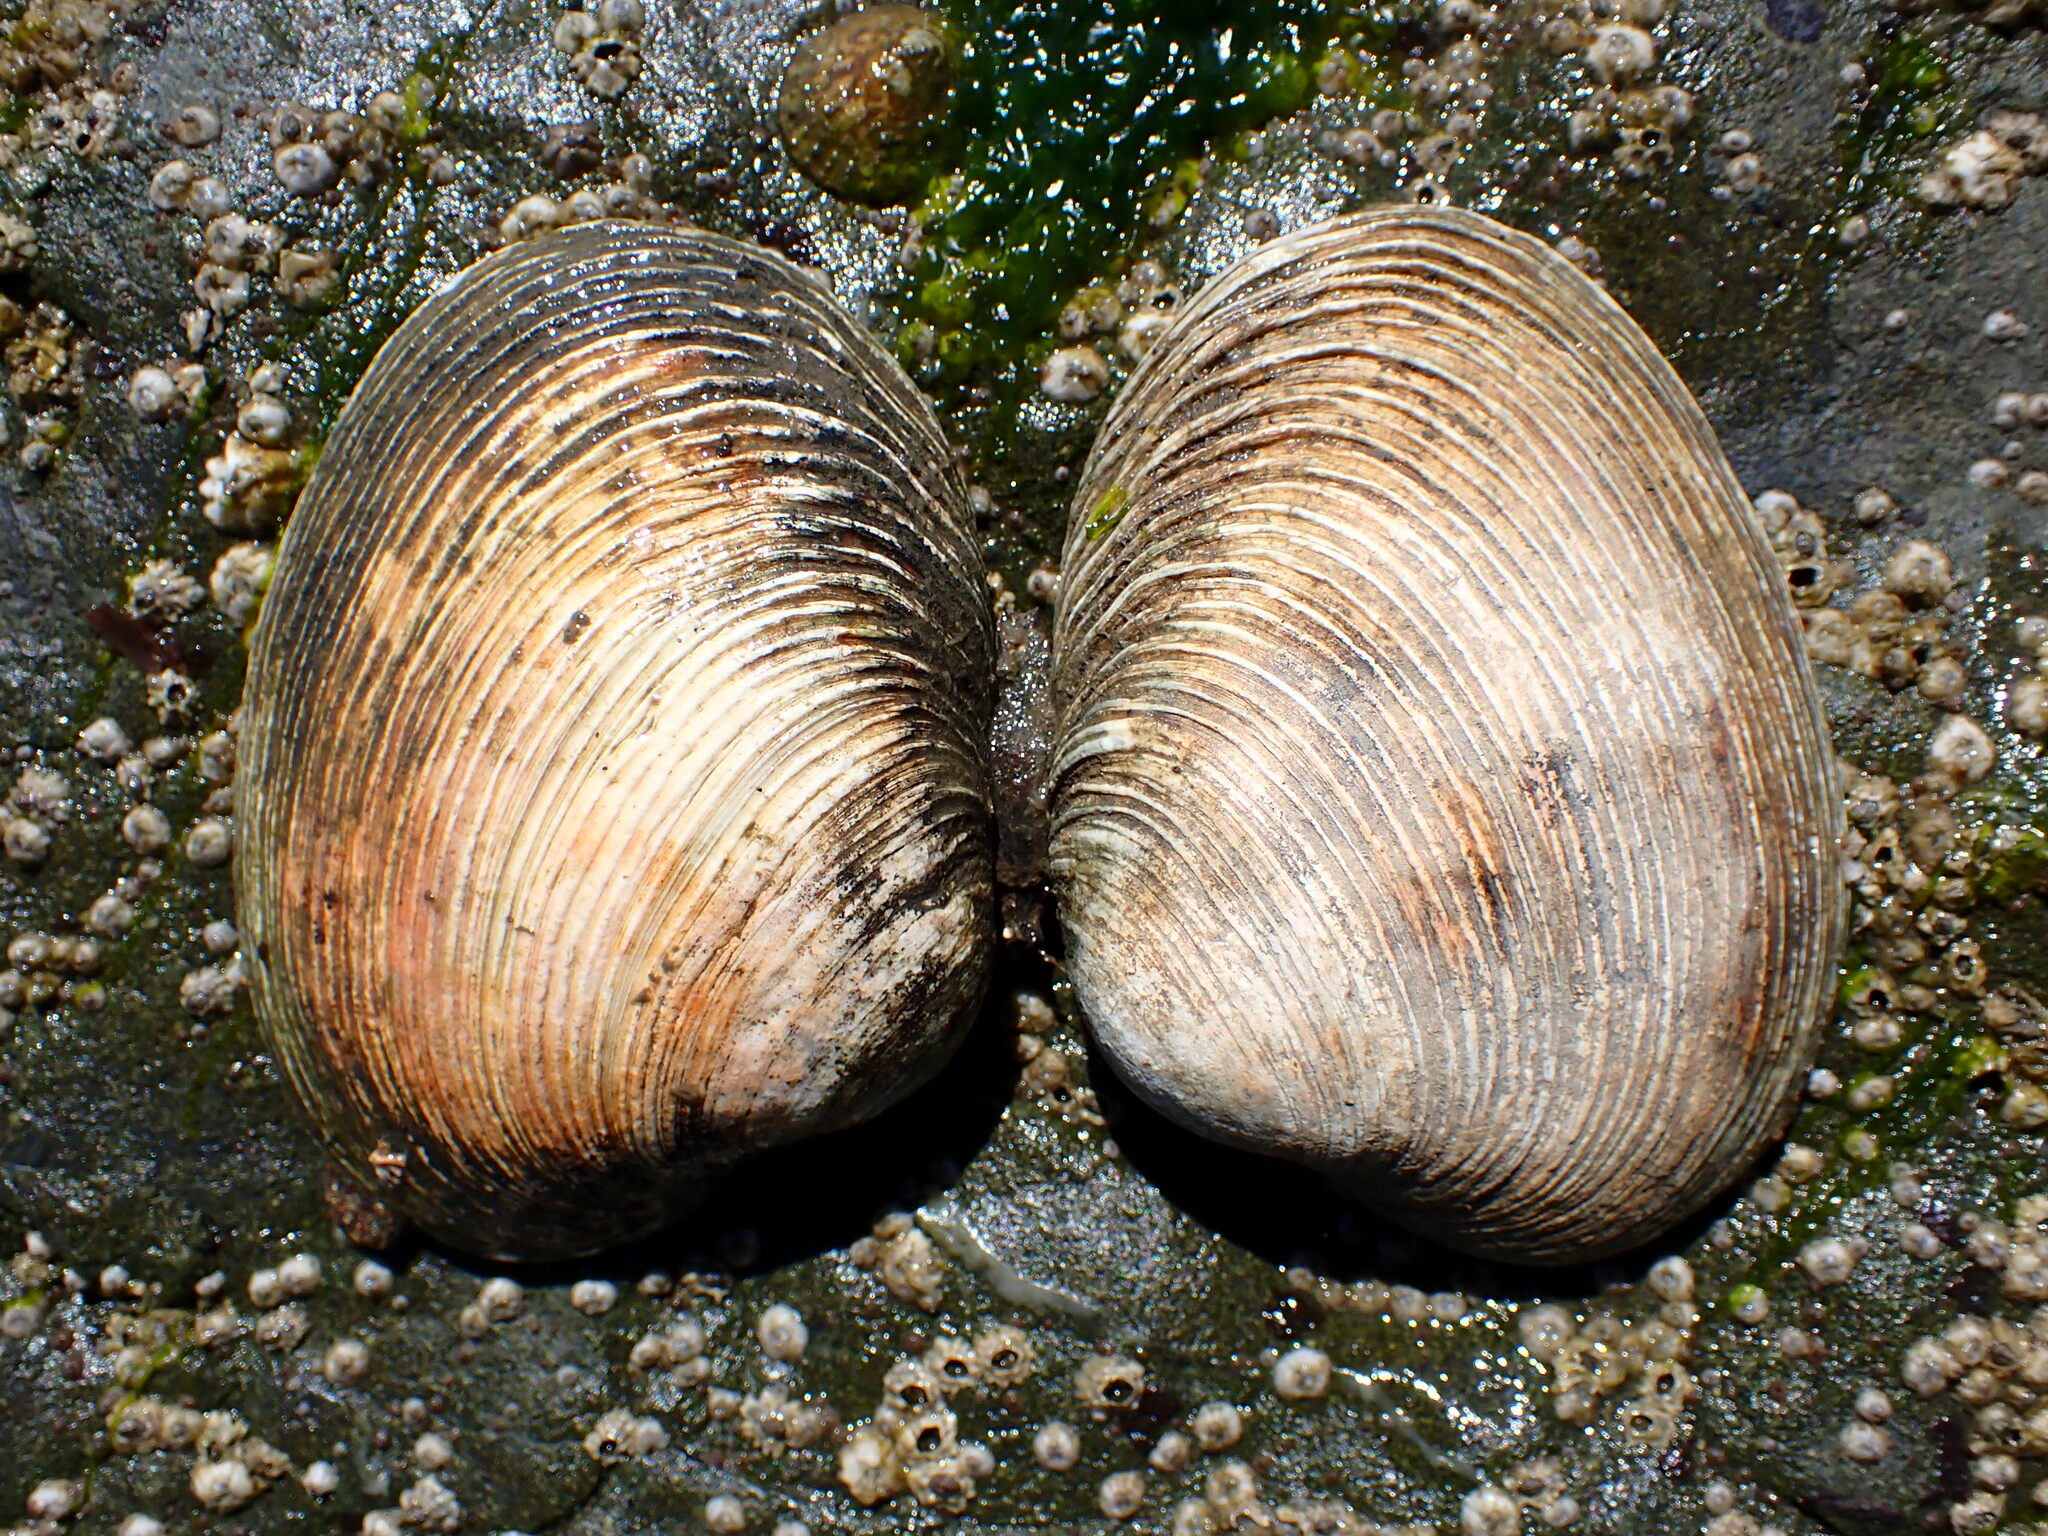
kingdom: Animalia
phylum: Mollusca
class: Bivalvia
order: Venerida
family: Veneridae
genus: Saxidomus
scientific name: Saxidomus nuttalli
